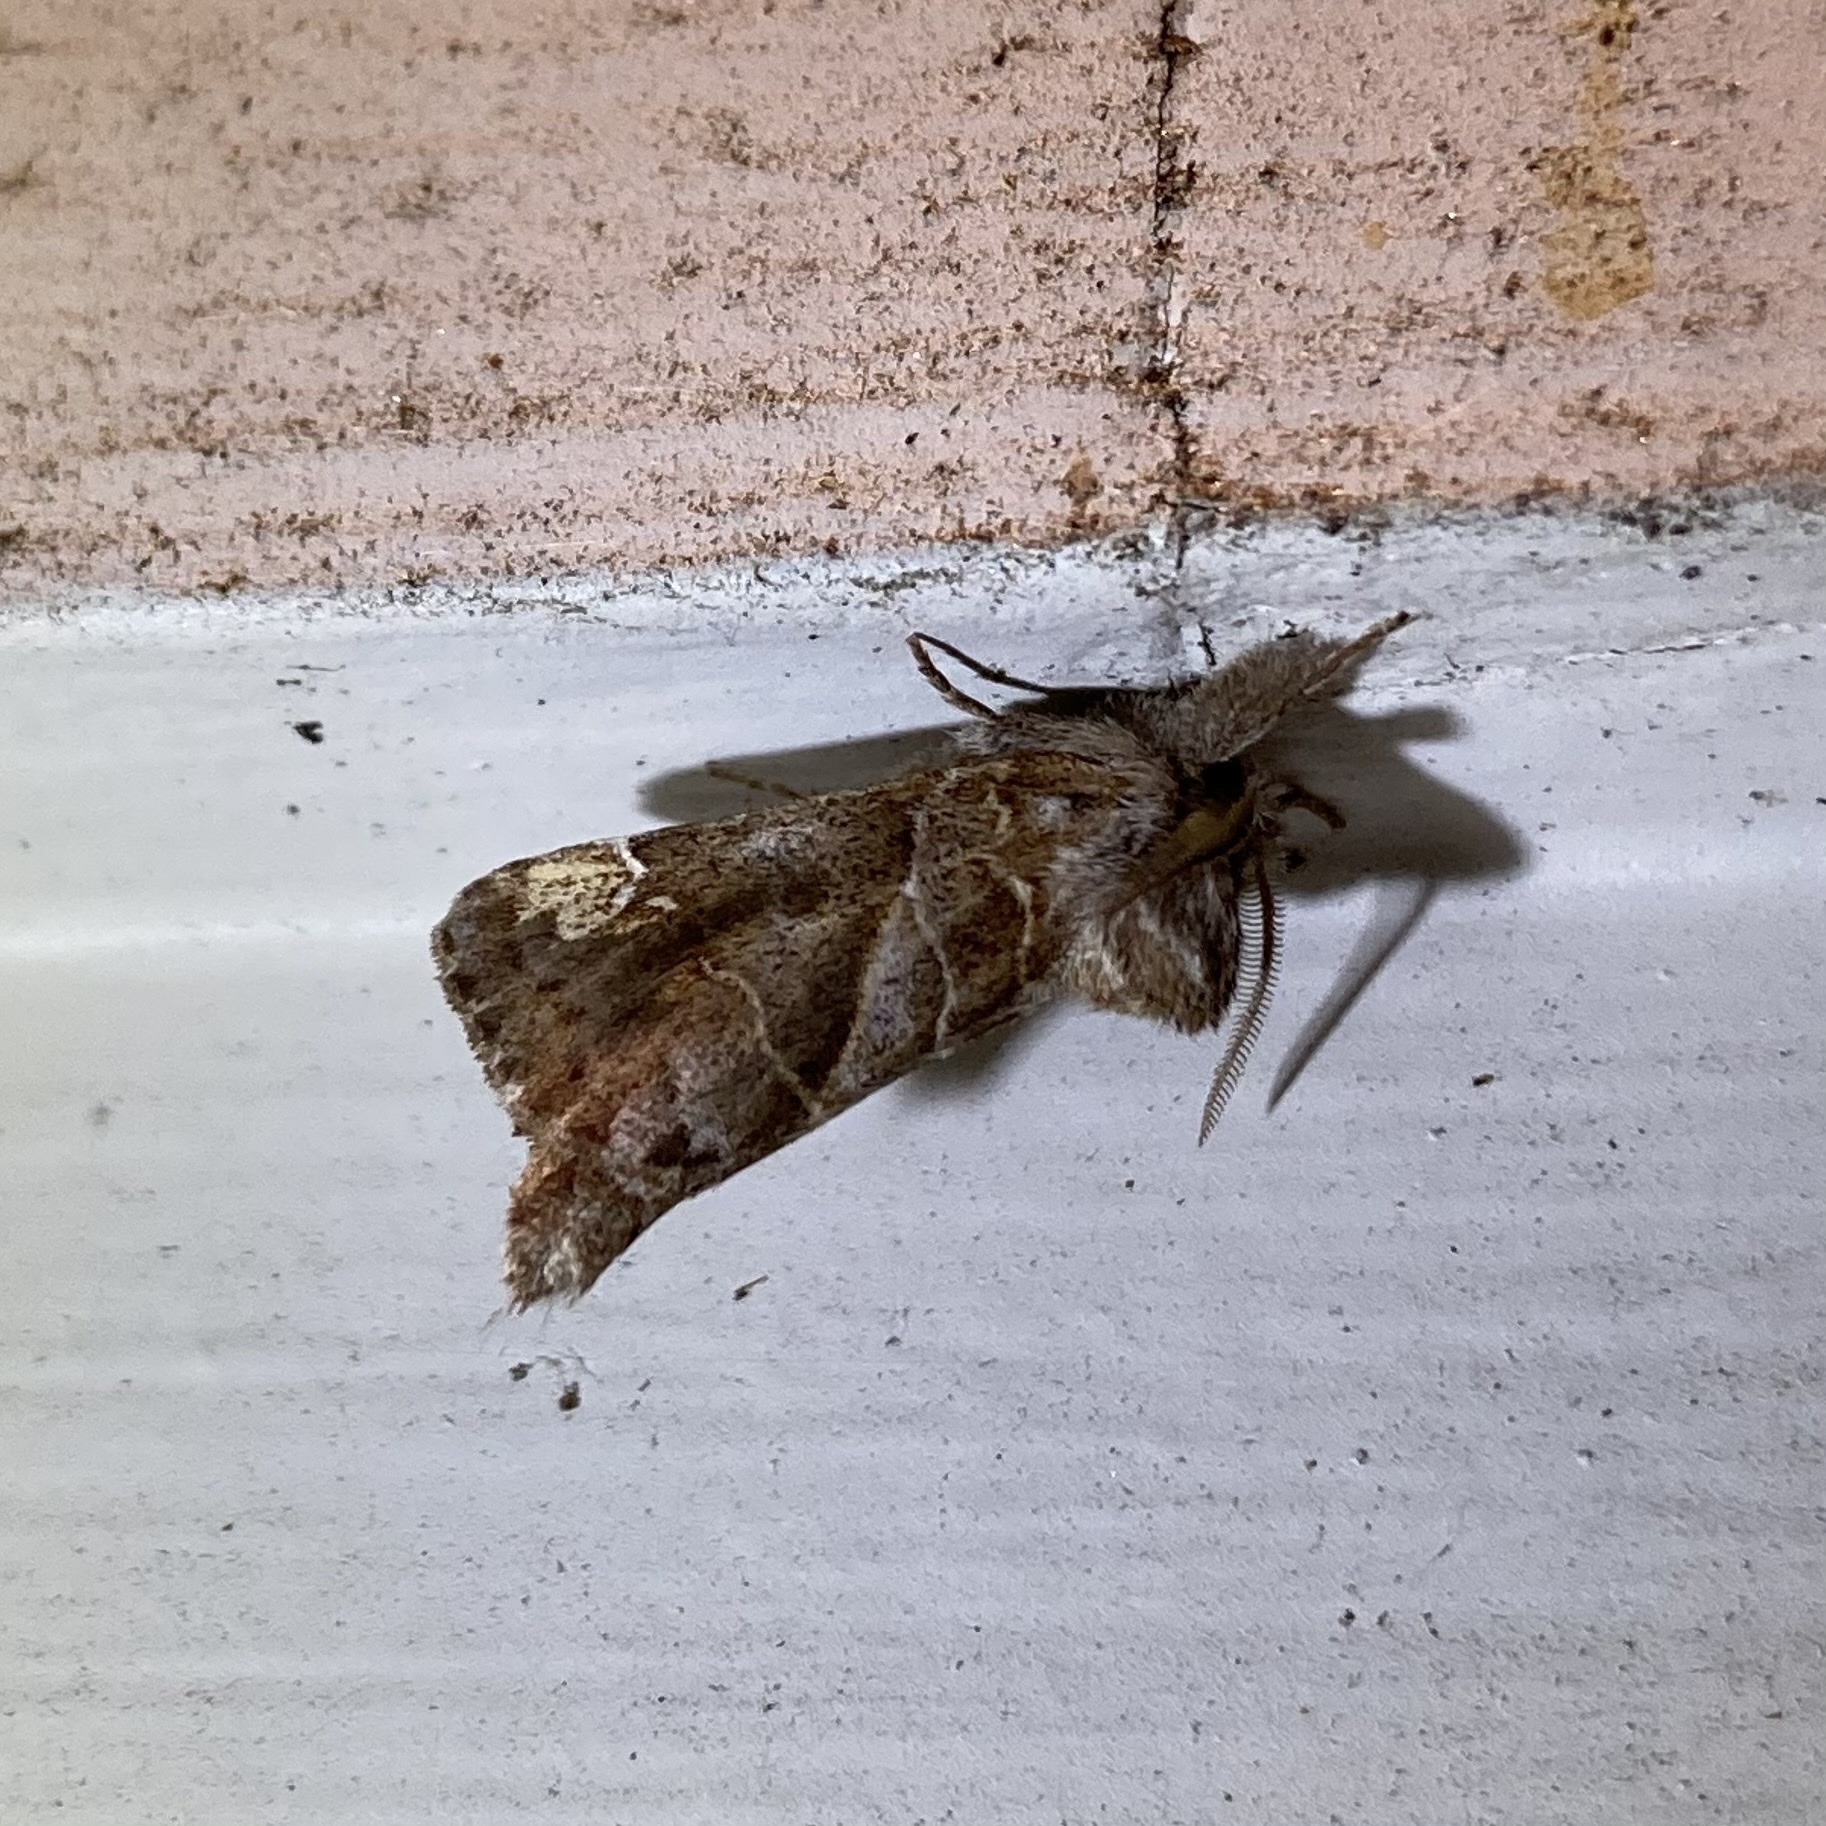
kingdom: Animalia
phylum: Arthropoda
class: Insecta
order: Lepidoptera
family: Notodontidae
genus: Clostera
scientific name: Clostera strigosa
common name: Striped chocolate-tip moth
